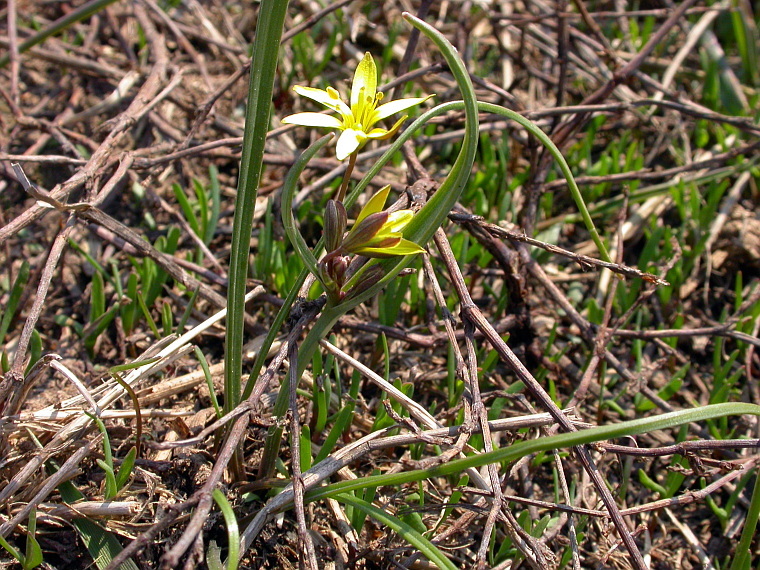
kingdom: Plantae
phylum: Tracheophyta
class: Liliopsida
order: Liliales
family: Liliaceae
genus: Gagea
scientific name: Gagea fragifera
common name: Lily
